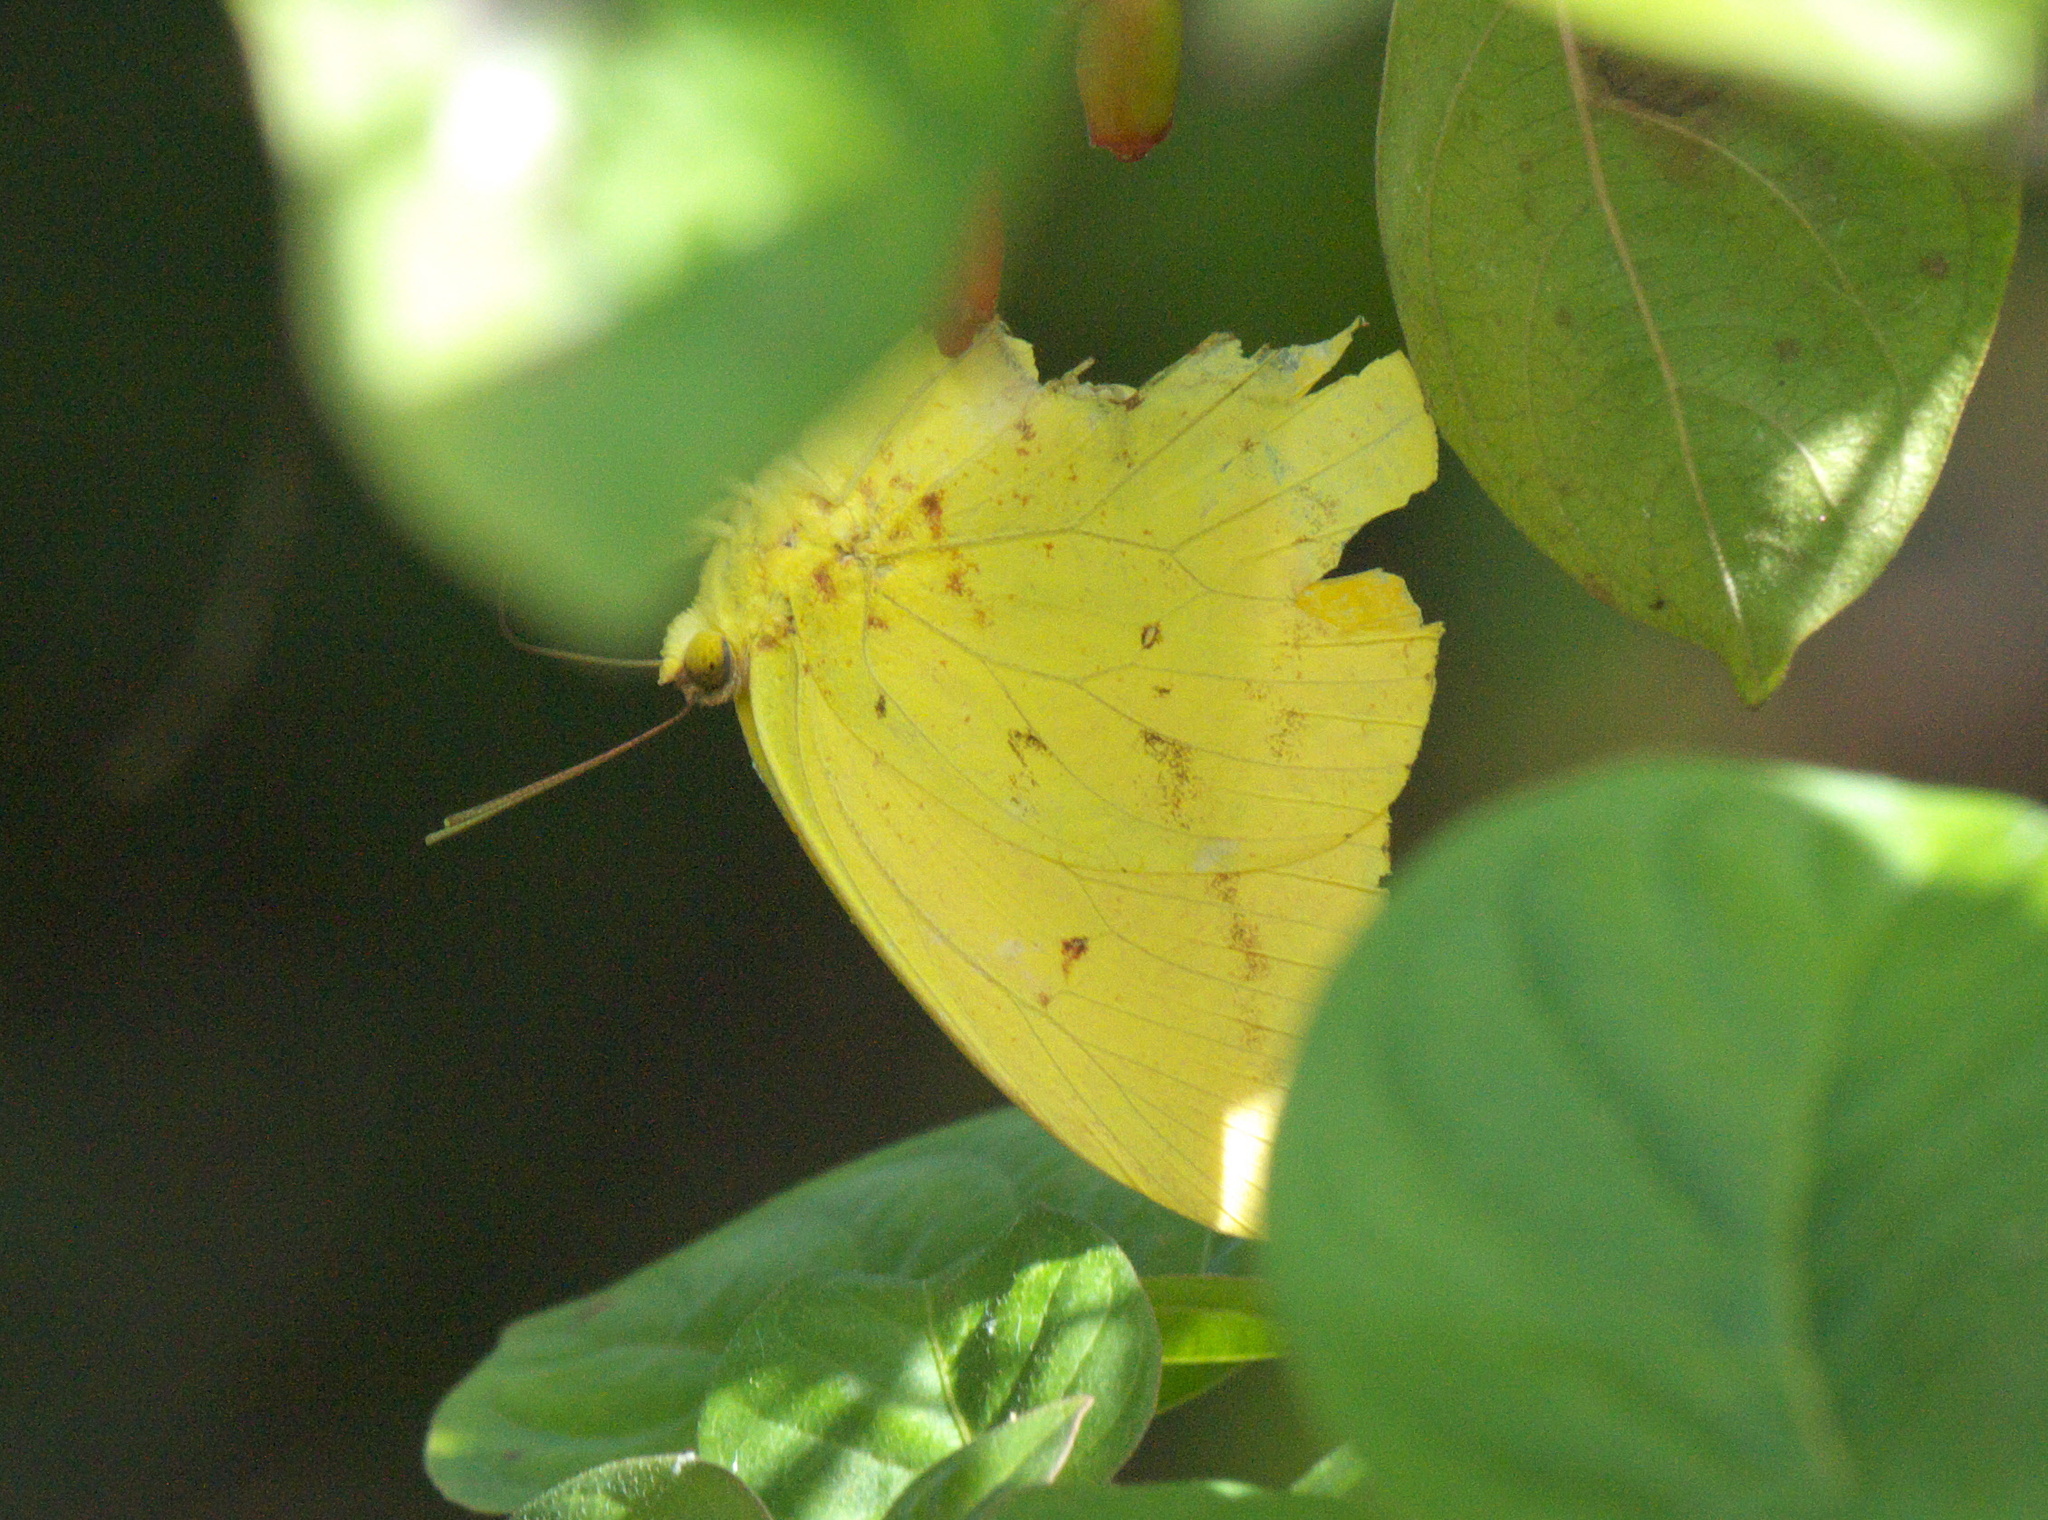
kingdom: Animalia
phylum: Arthropoda
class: Insecta
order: Lepidoptera
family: Pieridae
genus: Phoebis
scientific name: Phoebis agarithe
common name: Large orange sulphur
